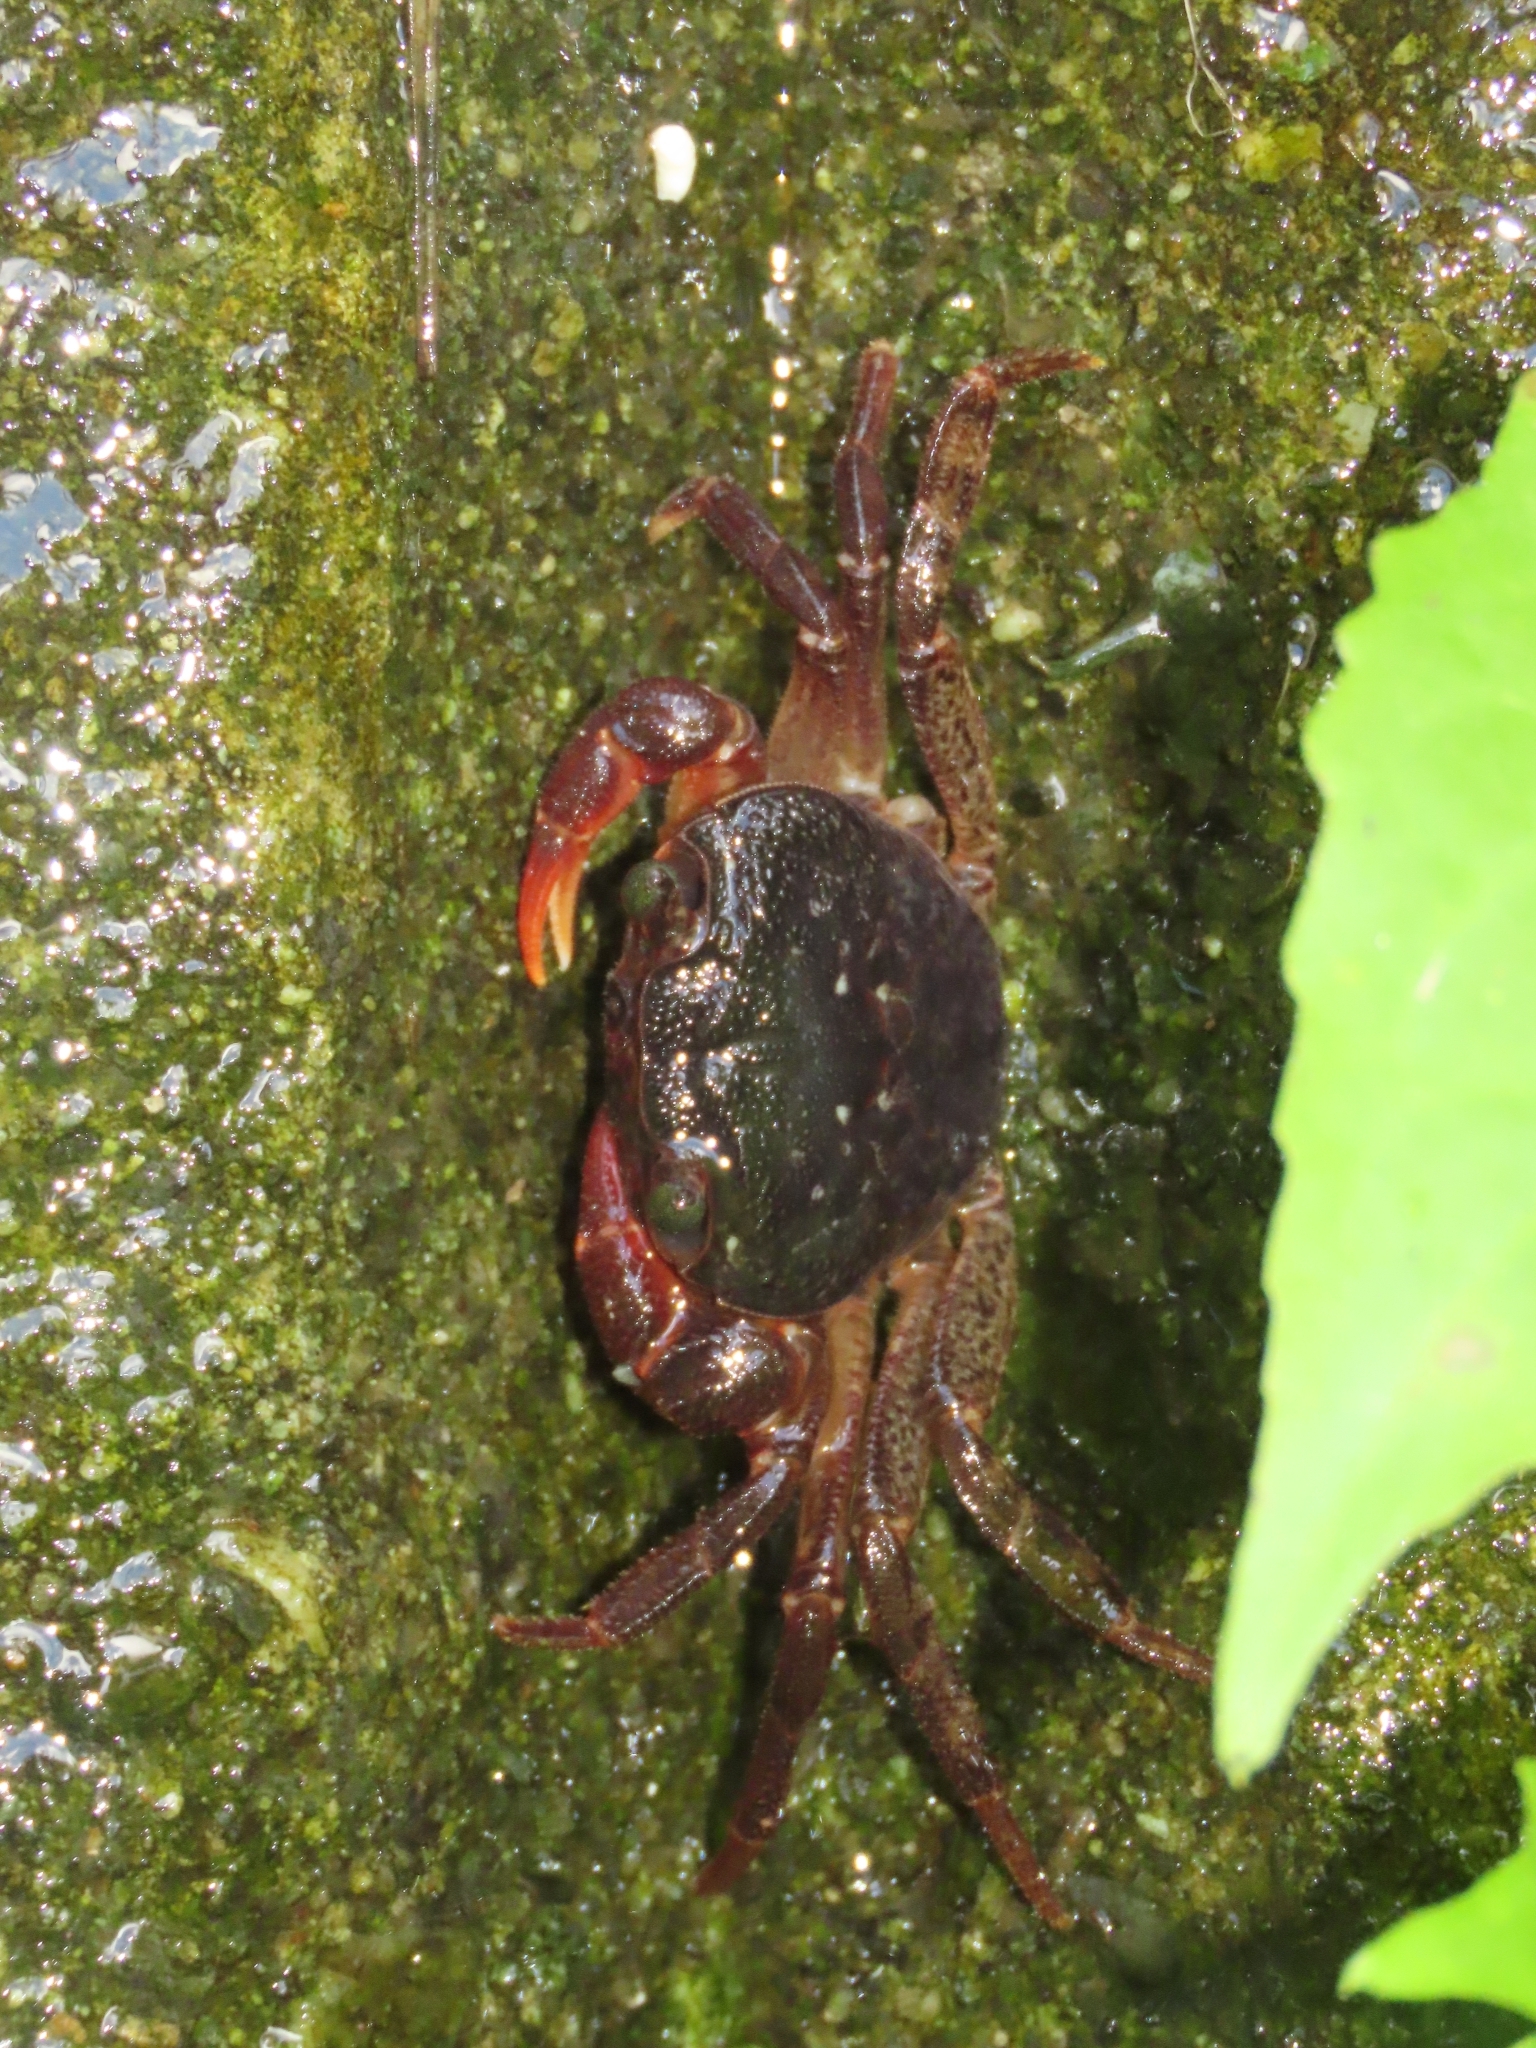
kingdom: Animalia
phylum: Arthropoda
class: Malacostraca
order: Decapoda
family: Potamidae
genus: Candidiopotamon
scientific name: Candidiopotamon
